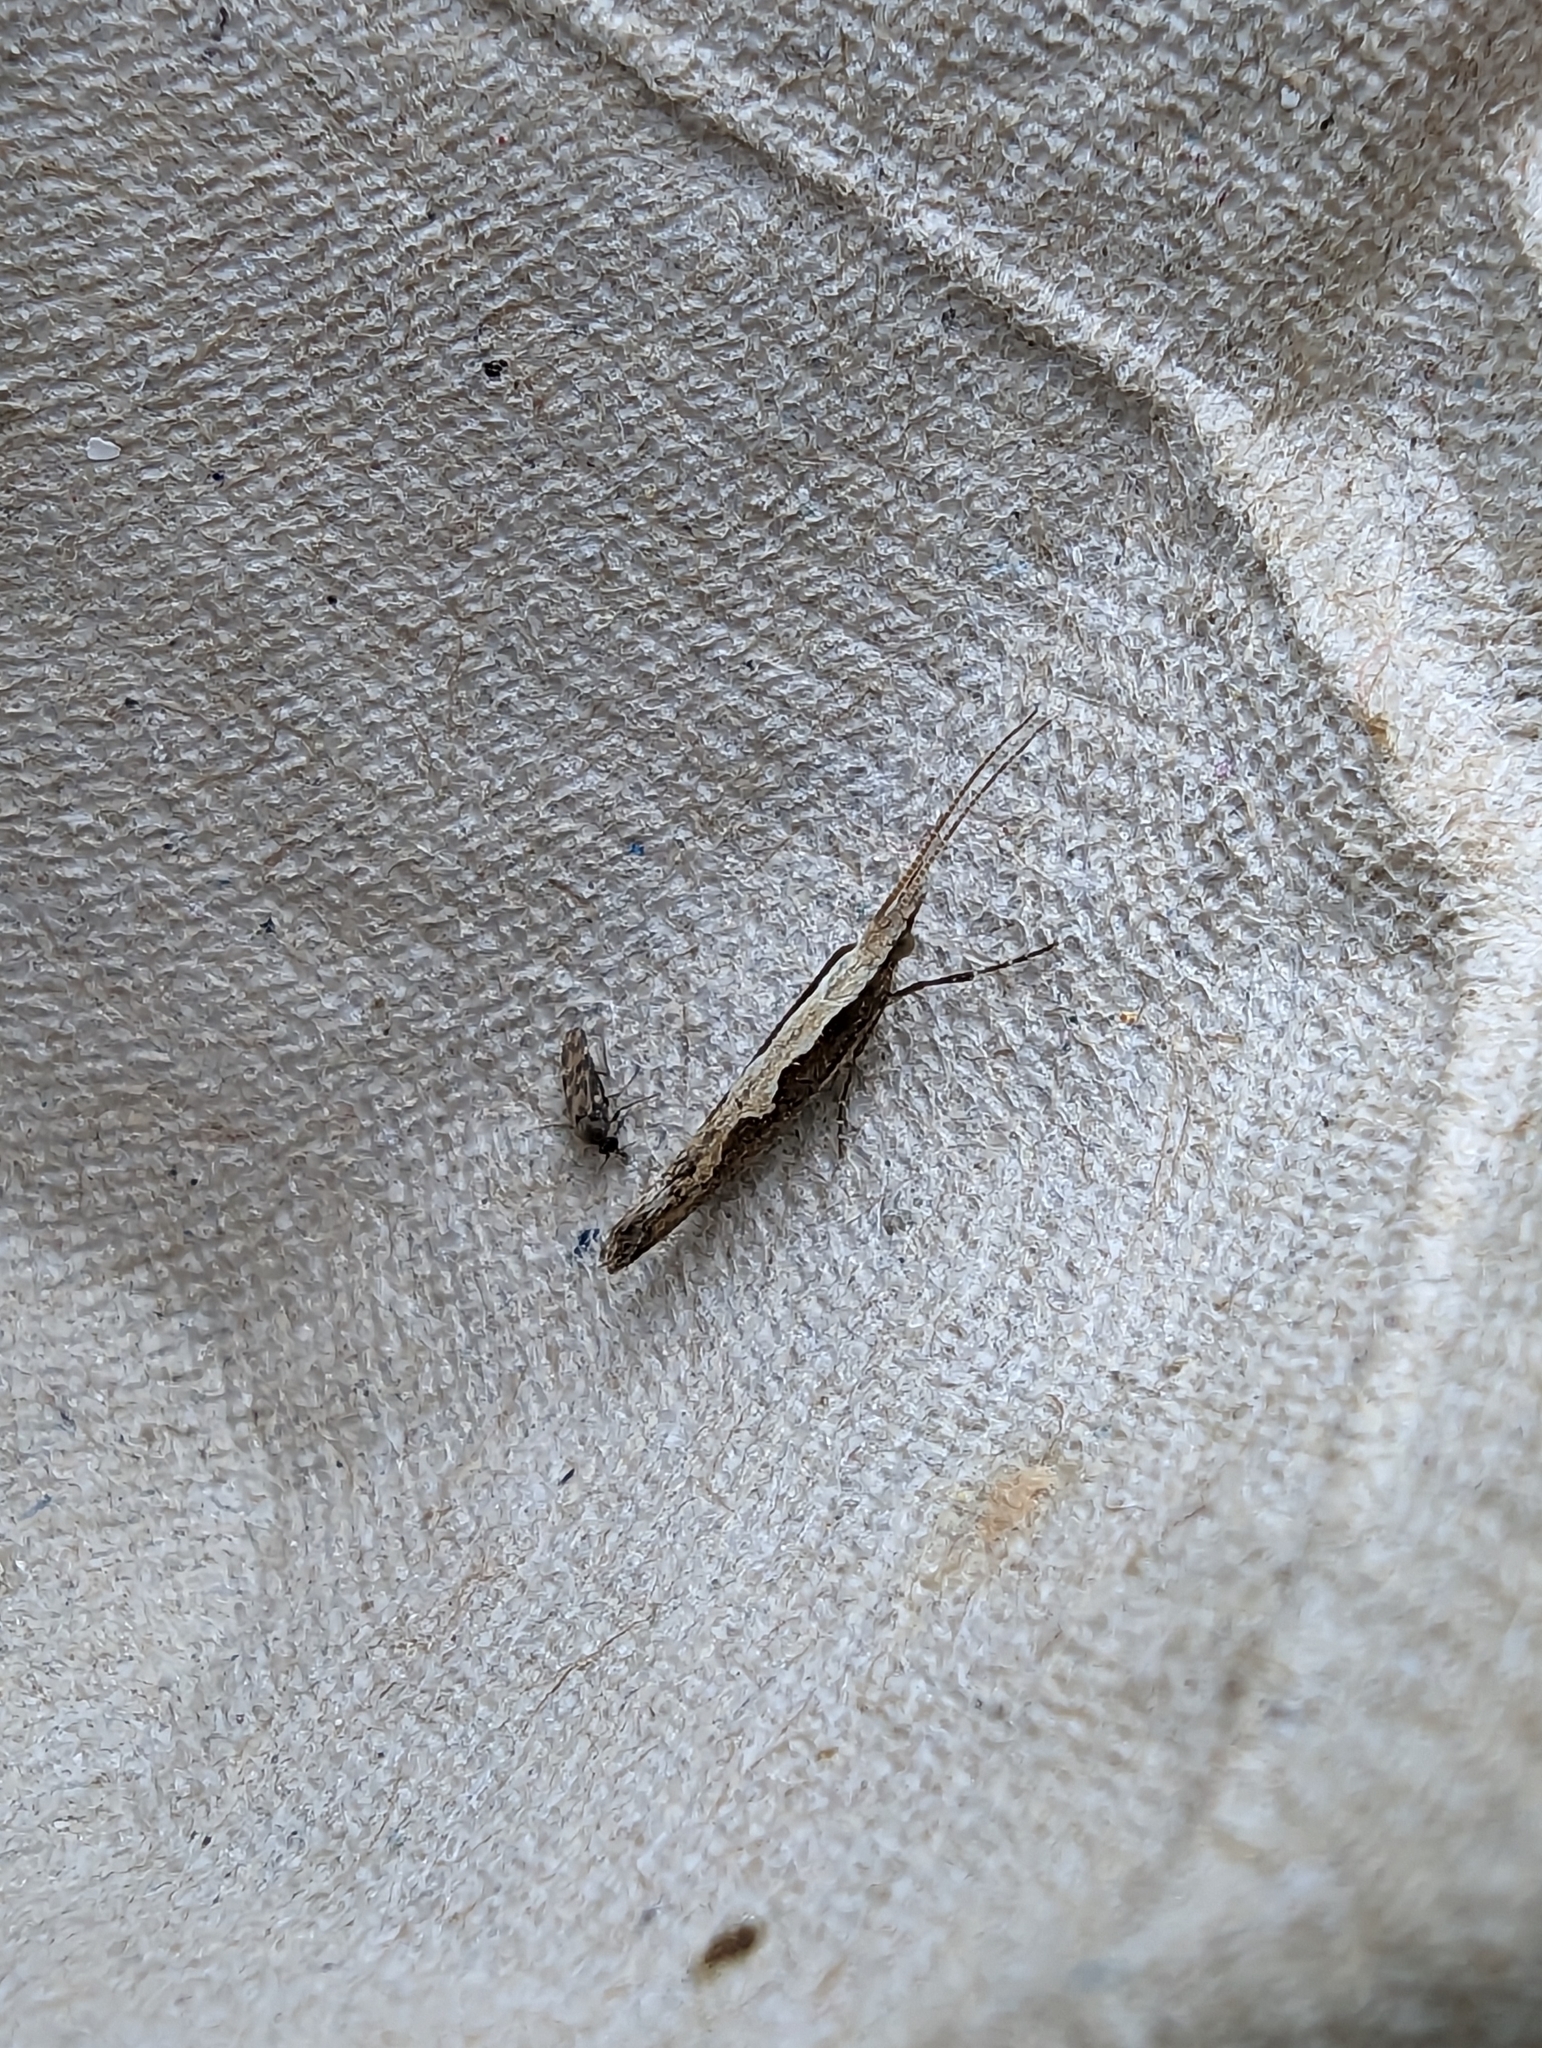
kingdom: Animalia
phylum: Arthropoda
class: Insecta
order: Lepidoptera
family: Plutellidae
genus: Plutella
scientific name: Plutella xylostella
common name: Diamond-back moth
